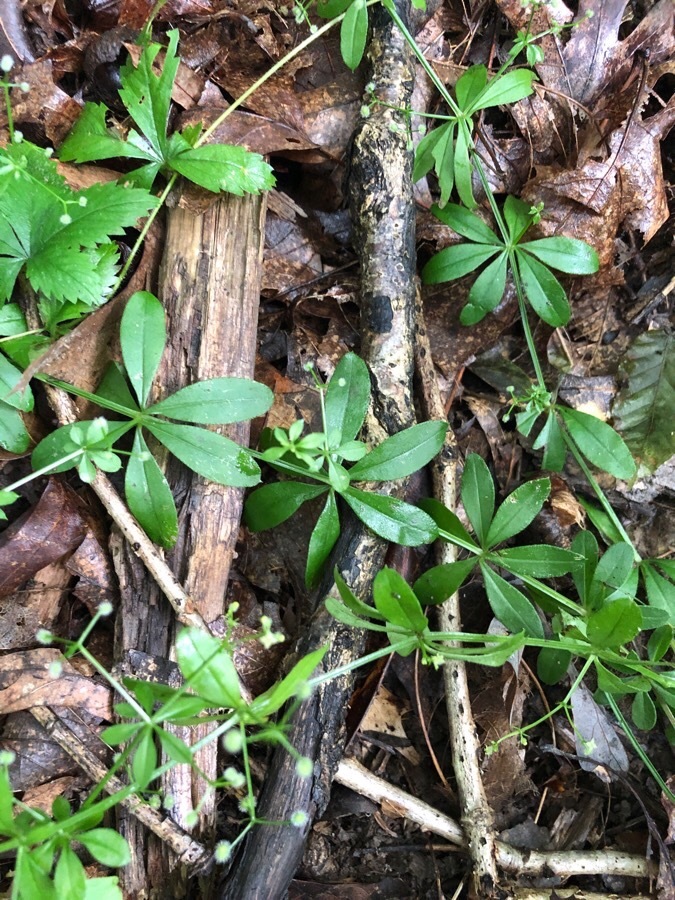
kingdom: Plantae
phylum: Tracheophyta
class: Magnoliopsida
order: Gentianales
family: Rubiaceae
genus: Galium
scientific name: Galium triflorum
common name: Fragrant bedstraw
